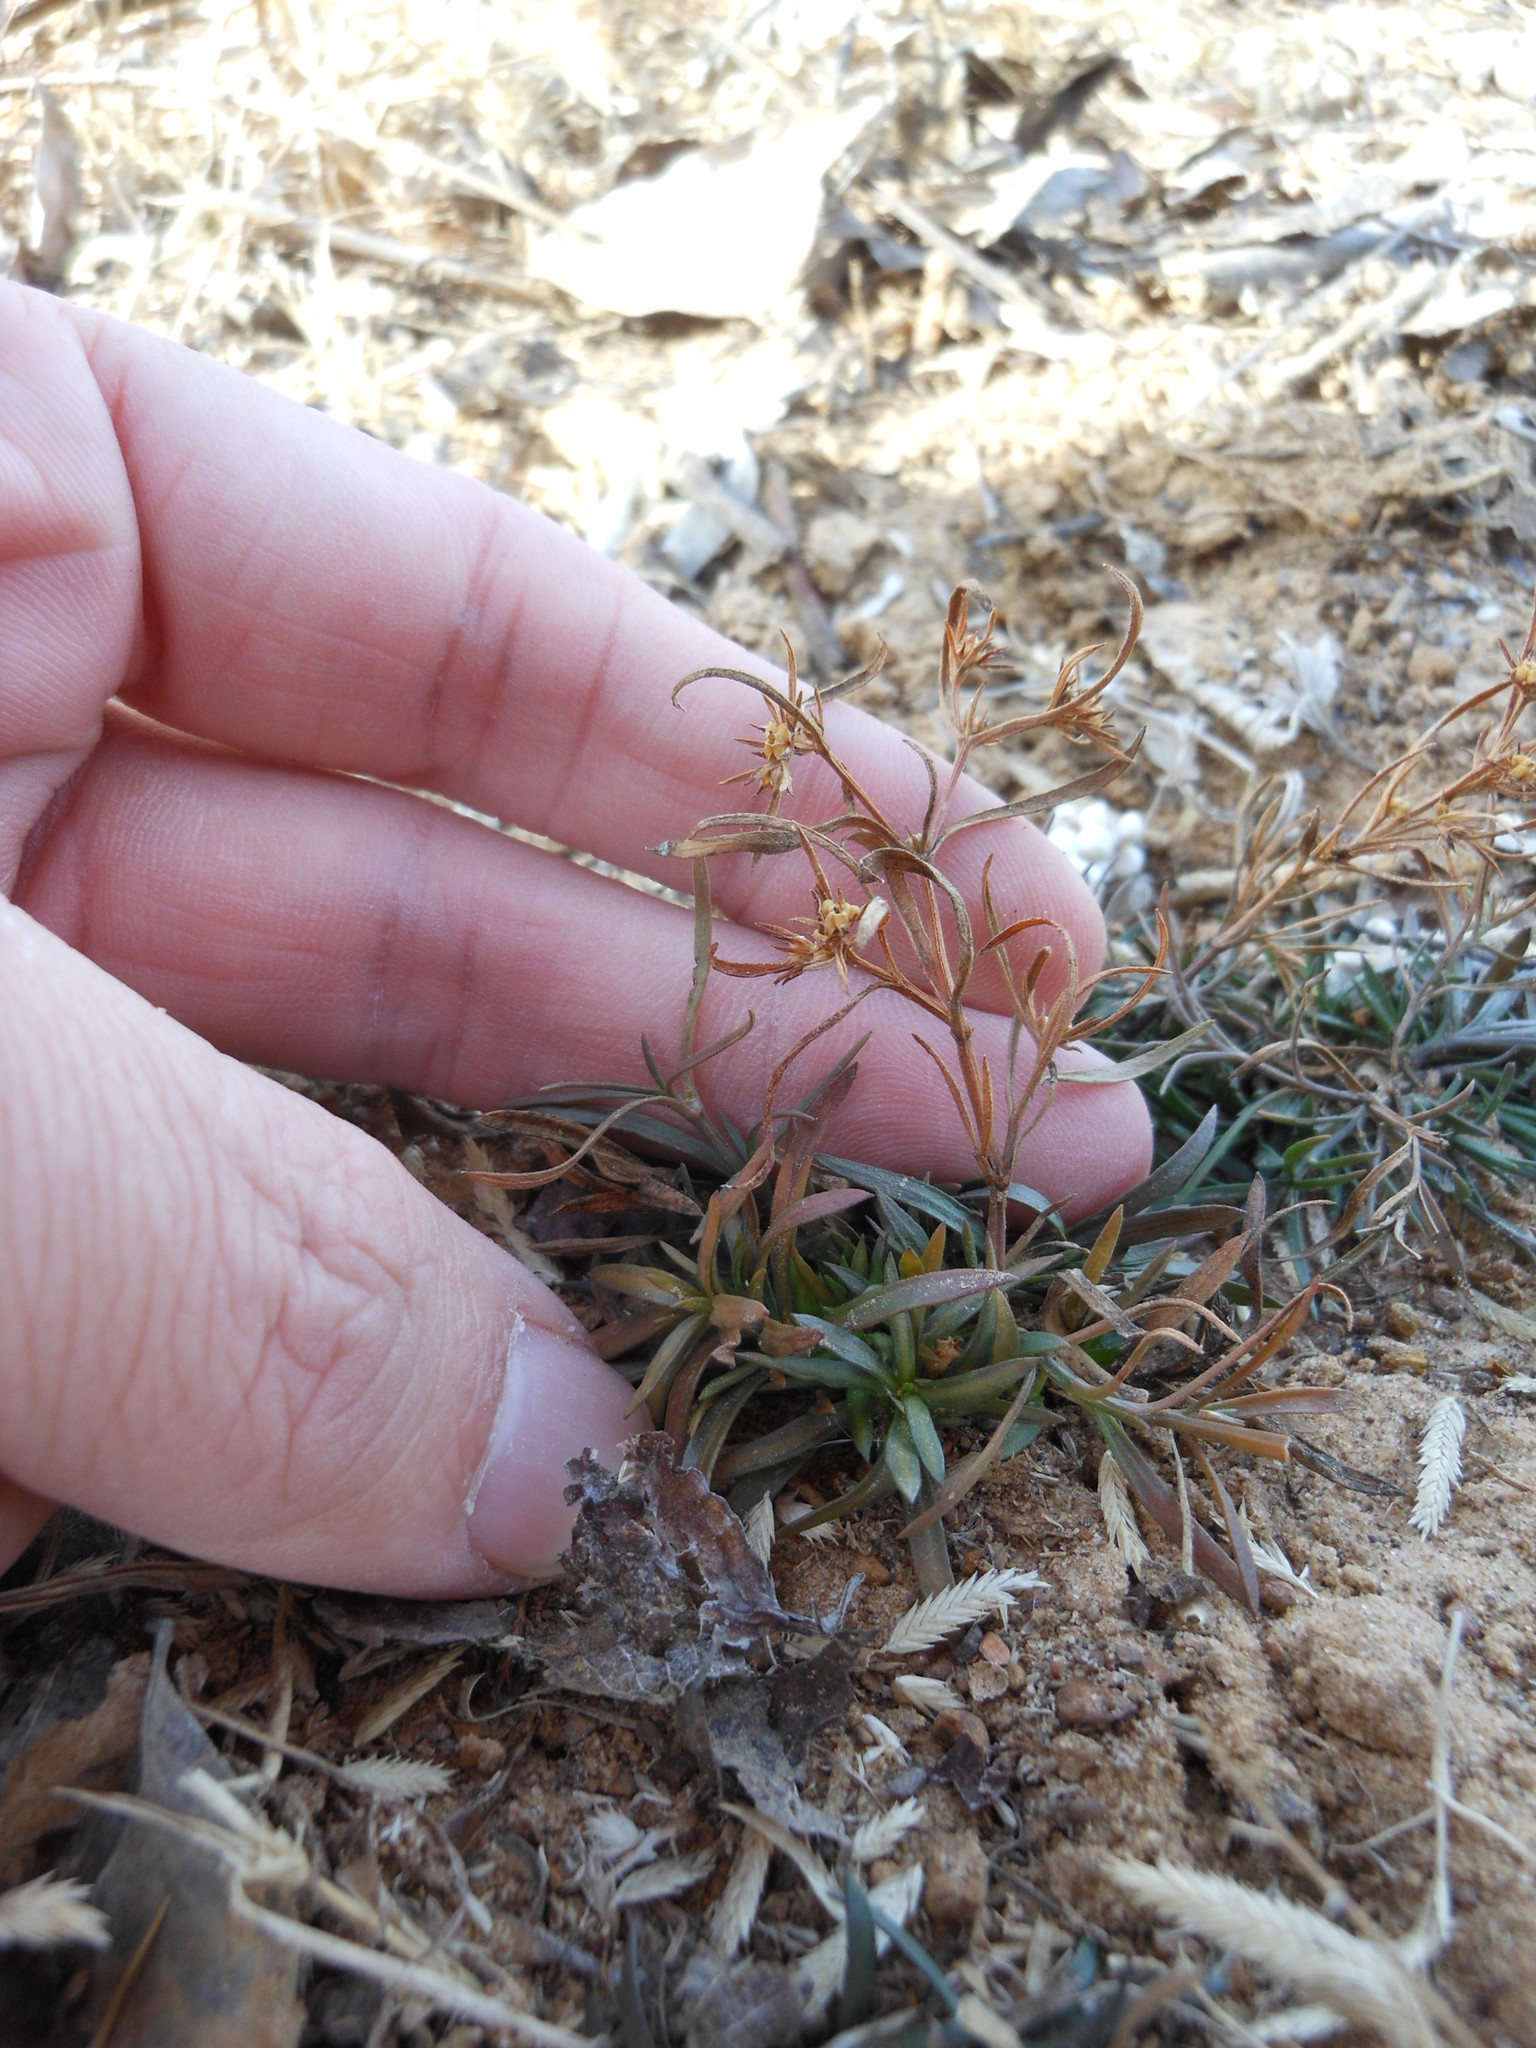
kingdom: Plantae
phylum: Tracheophyta
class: Magnoliopsida
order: Lamiales
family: Tetrachondraceae
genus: Polypremum
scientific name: Polypremum procumbens
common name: Juniper-leaf
